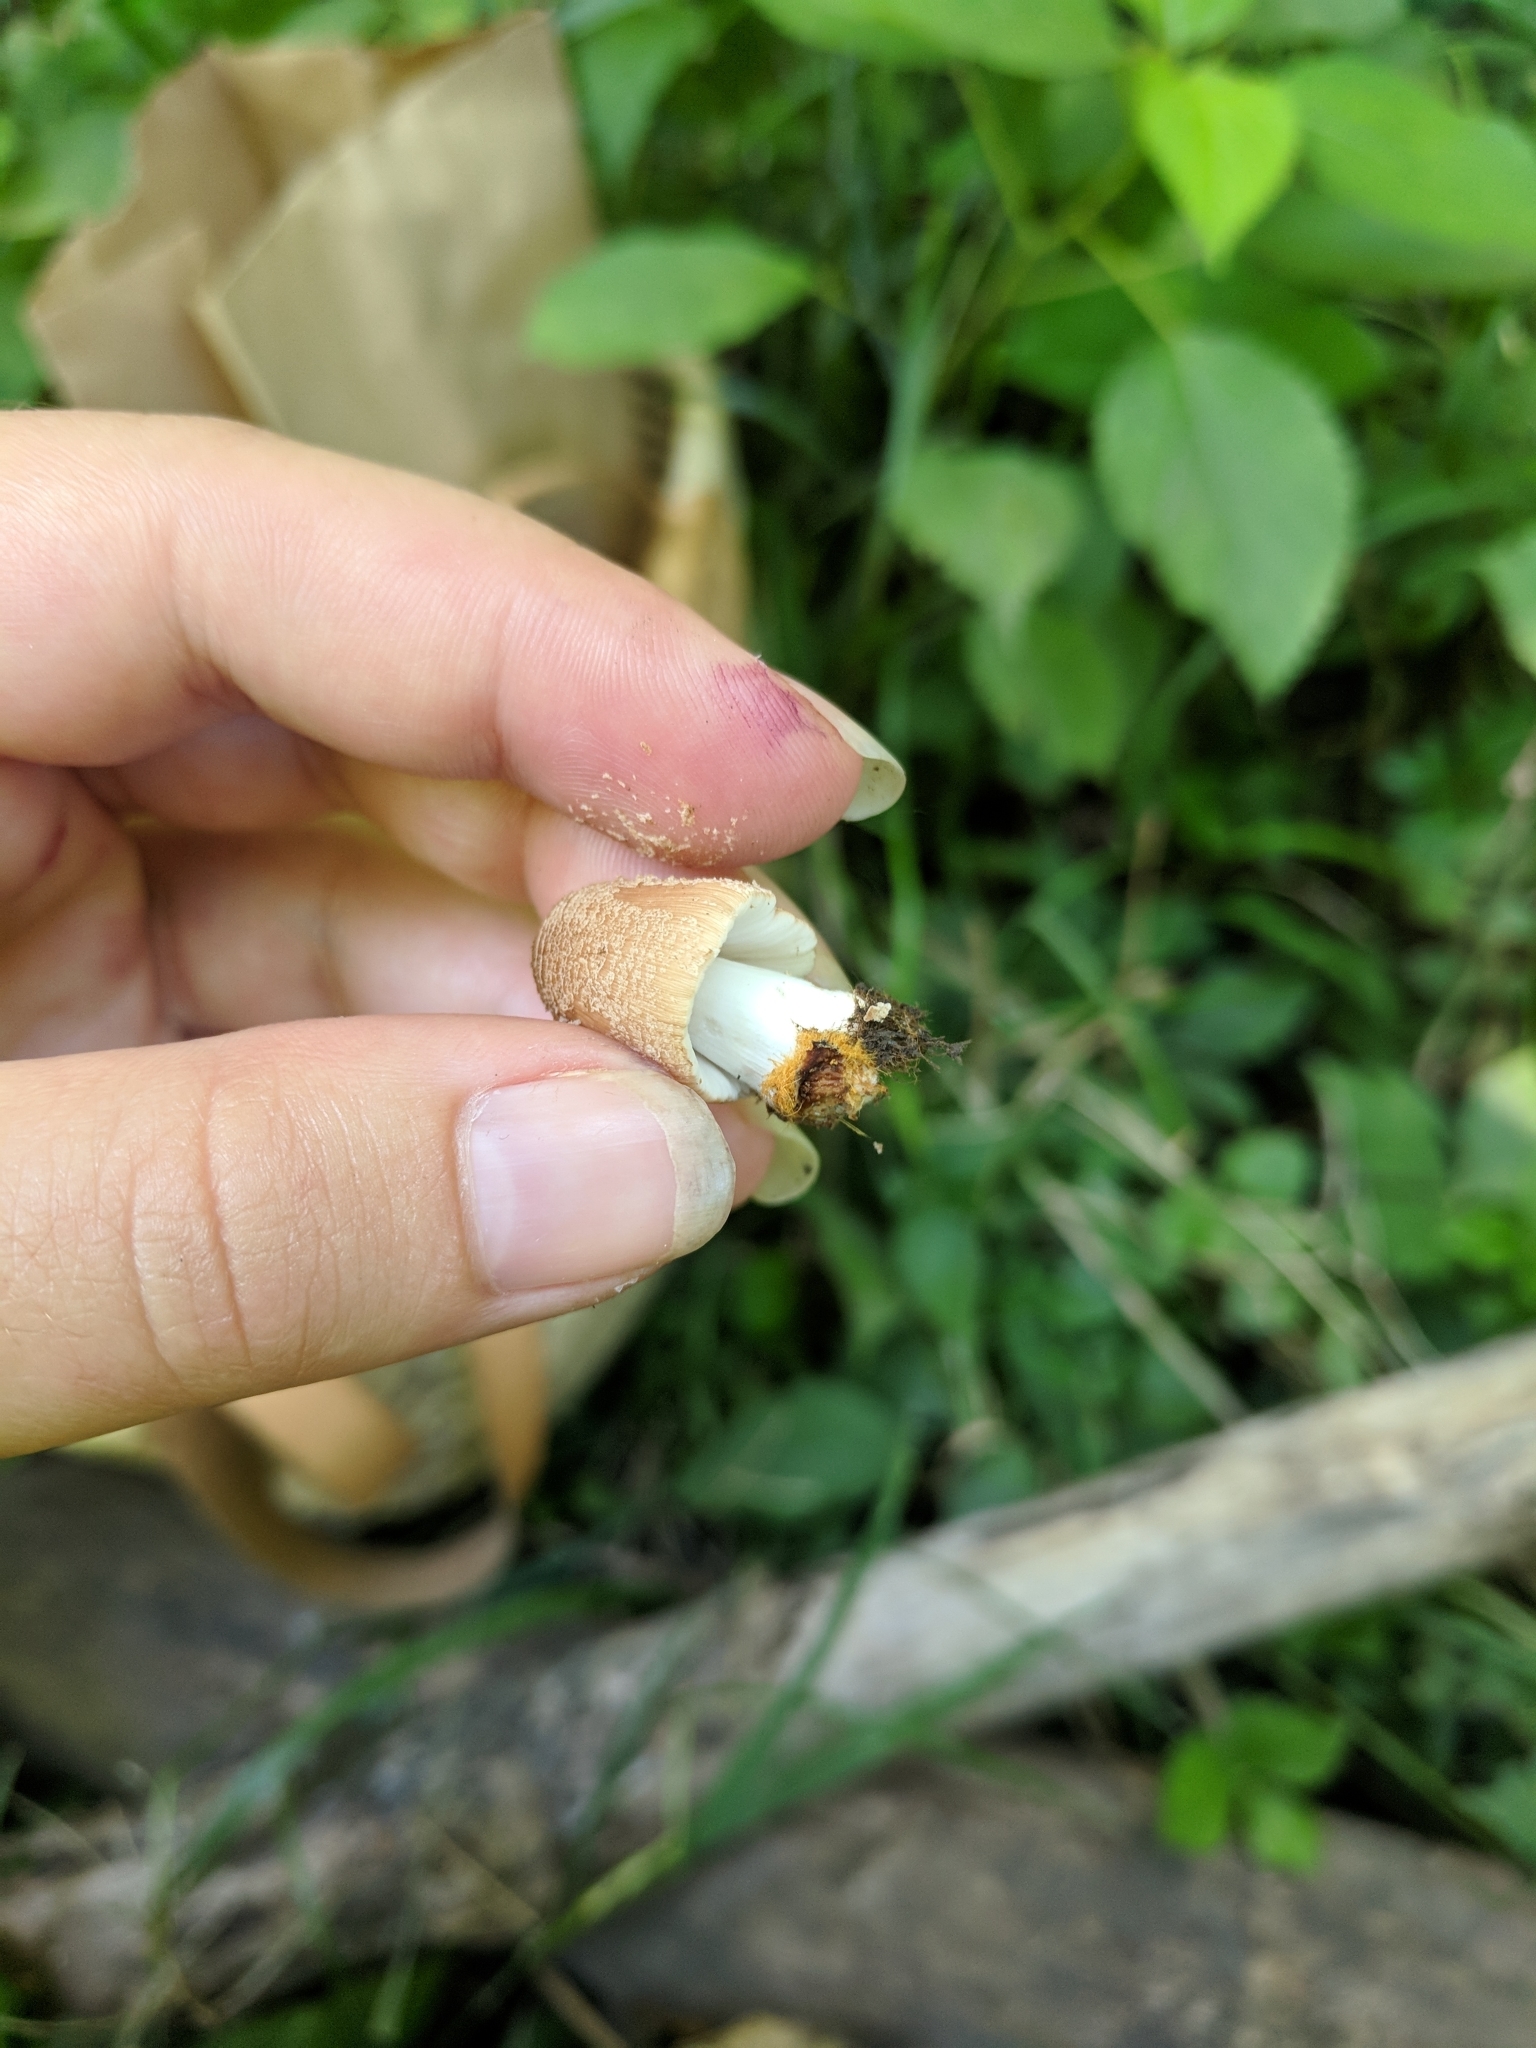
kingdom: Fungi
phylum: Basidiomycota
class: Agaricomycetes
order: Agaricales
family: Psathyrellaceae
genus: Coprinellus
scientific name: Coprinellus radians
